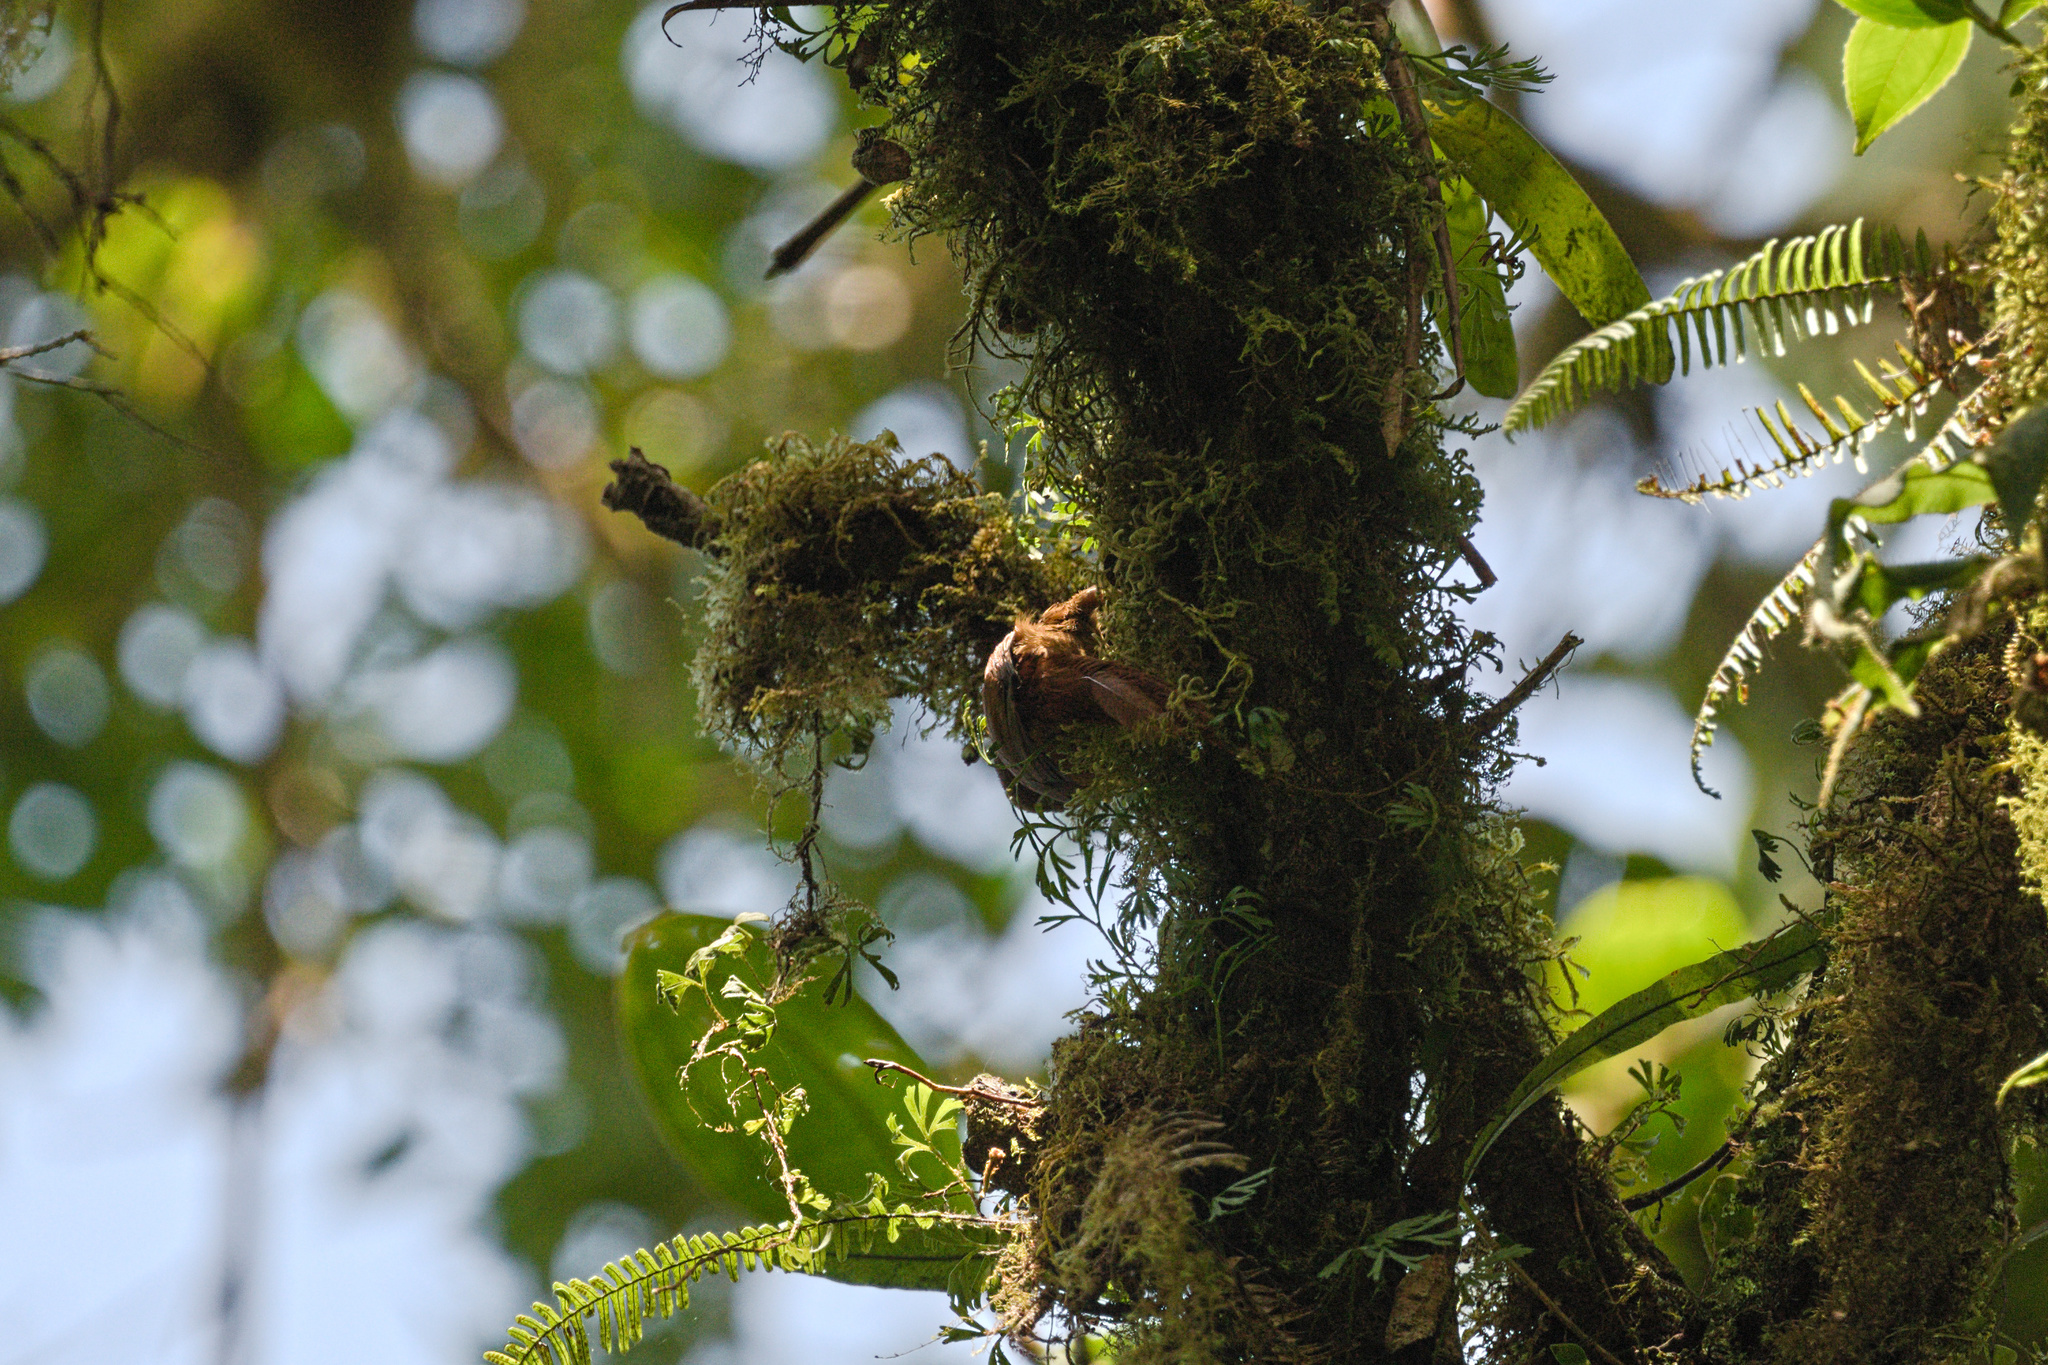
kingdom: Animalia
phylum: Chordata
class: Aves
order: Passeriformes
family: Furnariidae
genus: Margarornis
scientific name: Margarornis rubiginosus
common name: Ruddy treerunner
